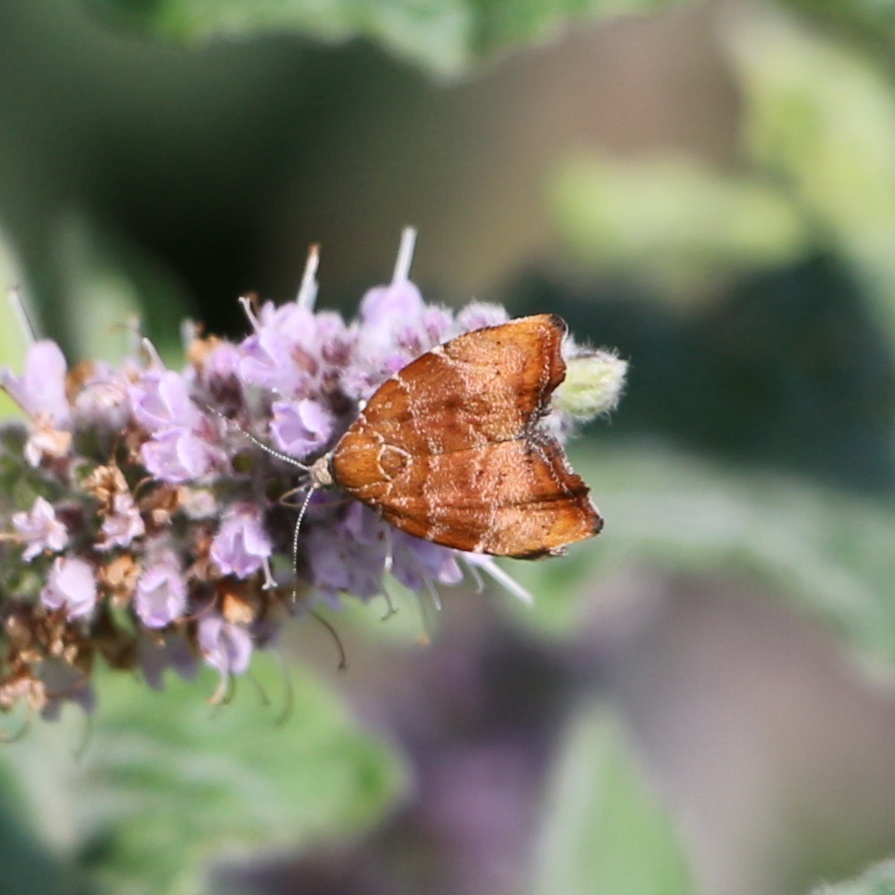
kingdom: Animalia
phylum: Arthropoda
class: Insecta
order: Lepidoptera
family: Choreutidae
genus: Anthophila
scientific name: Anthophila nemorana
